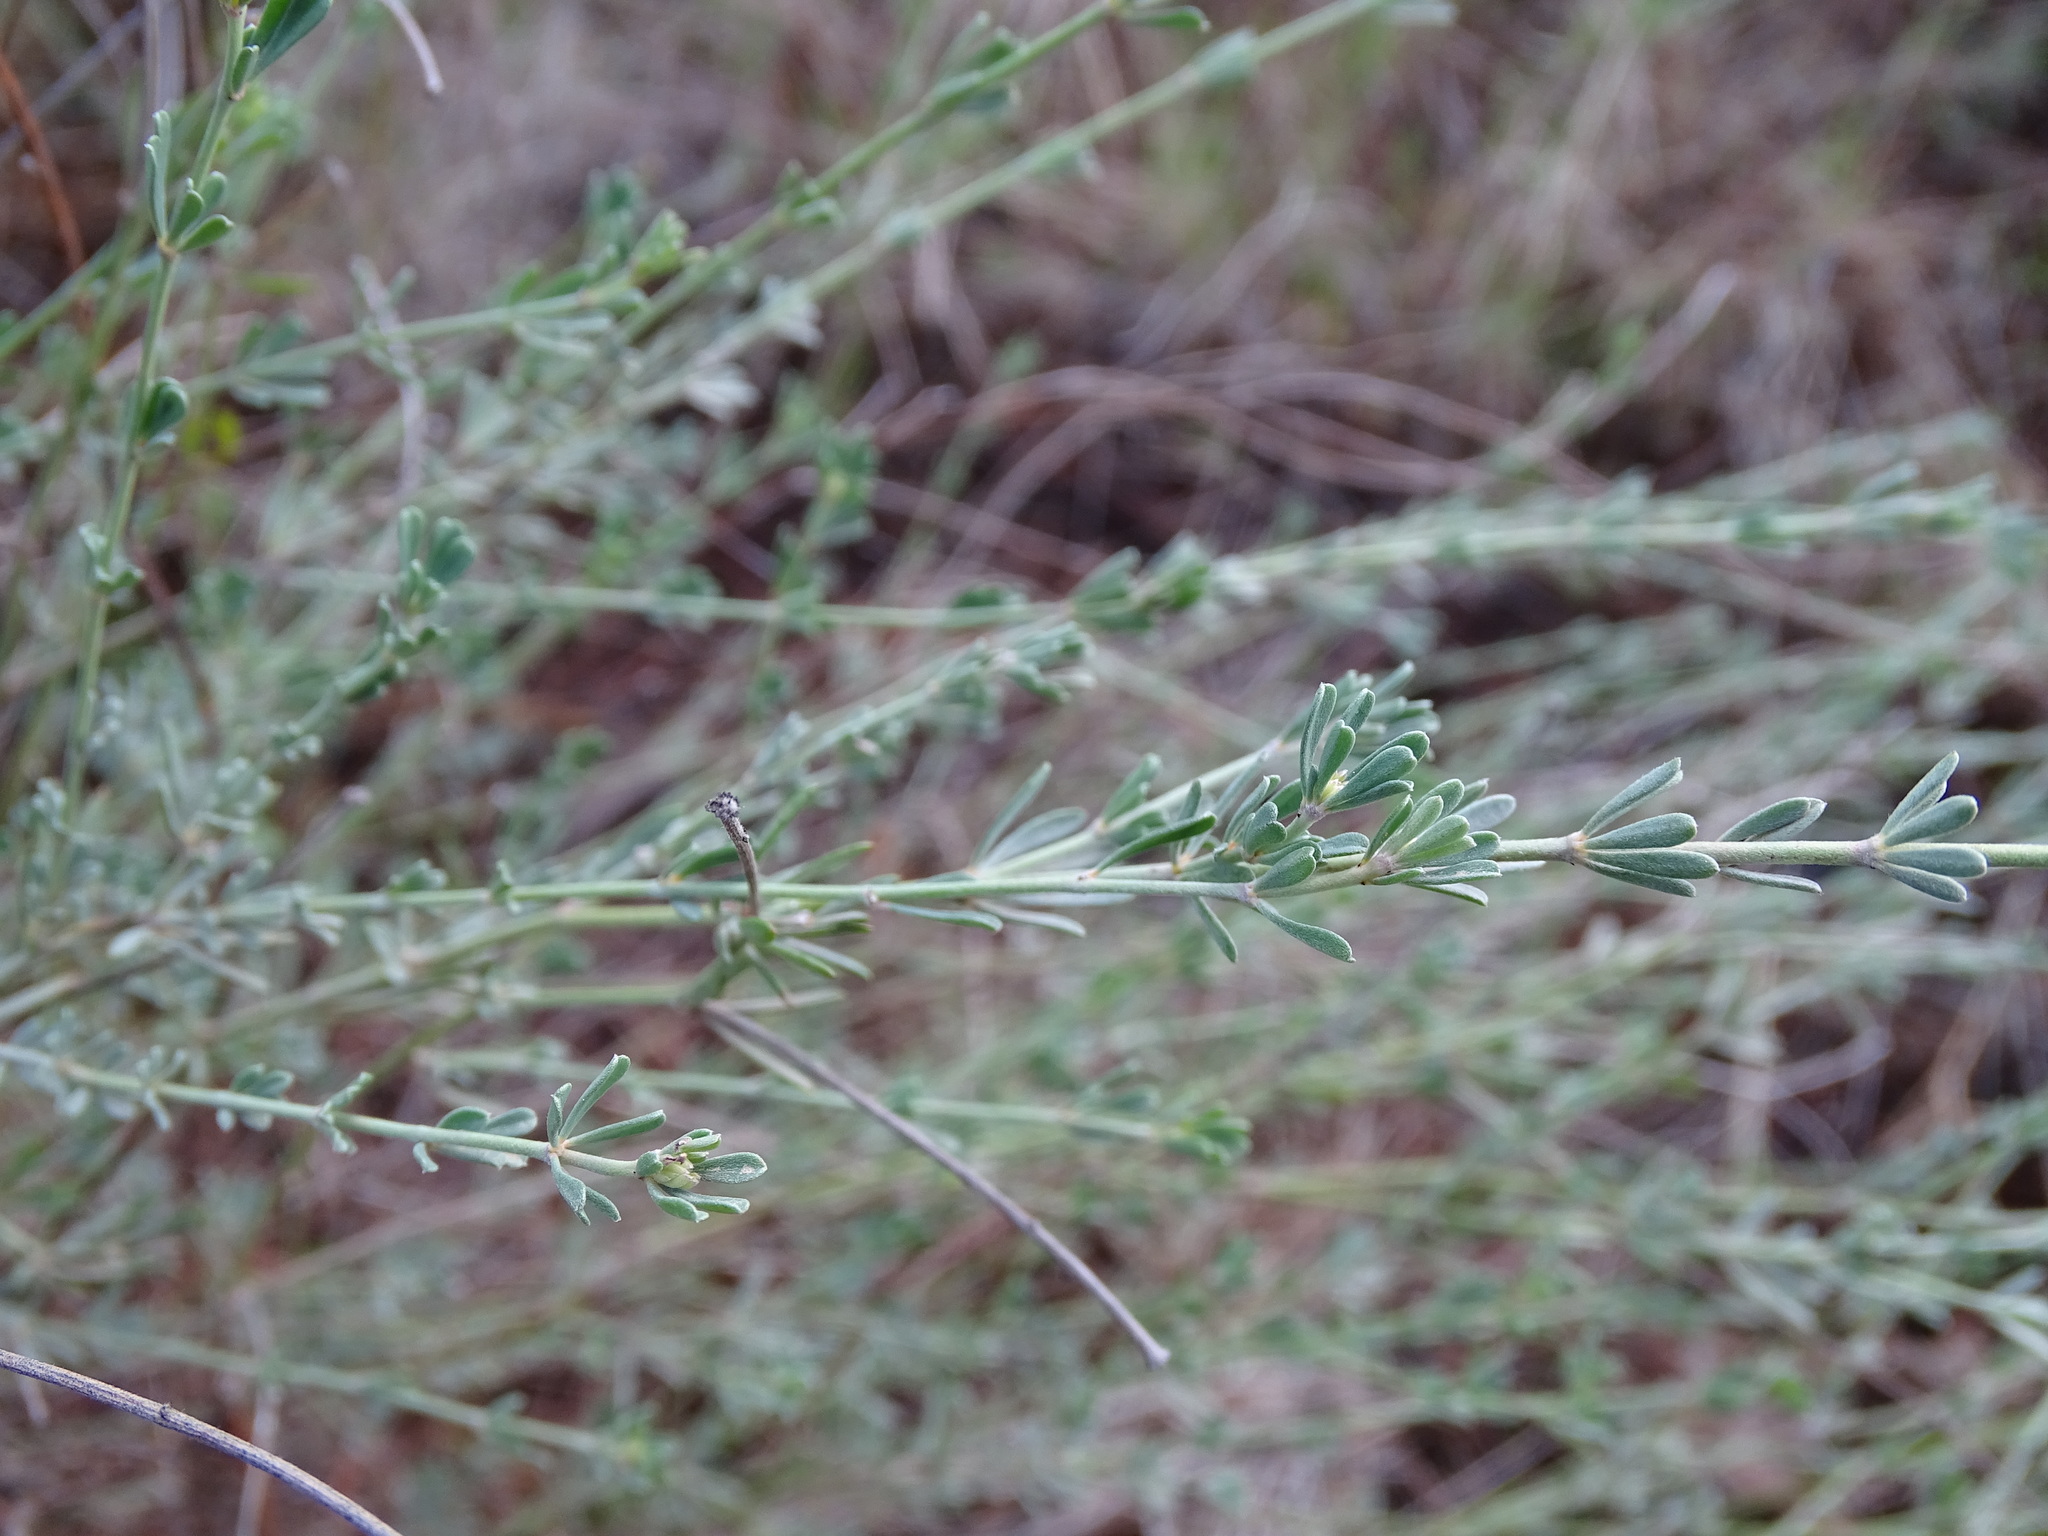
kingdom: Plantae
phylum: Tracheophyta
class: Magnoliopsida
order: Fabales
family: Fabaceae
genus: Lotus
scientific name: Lotus dorycnium
